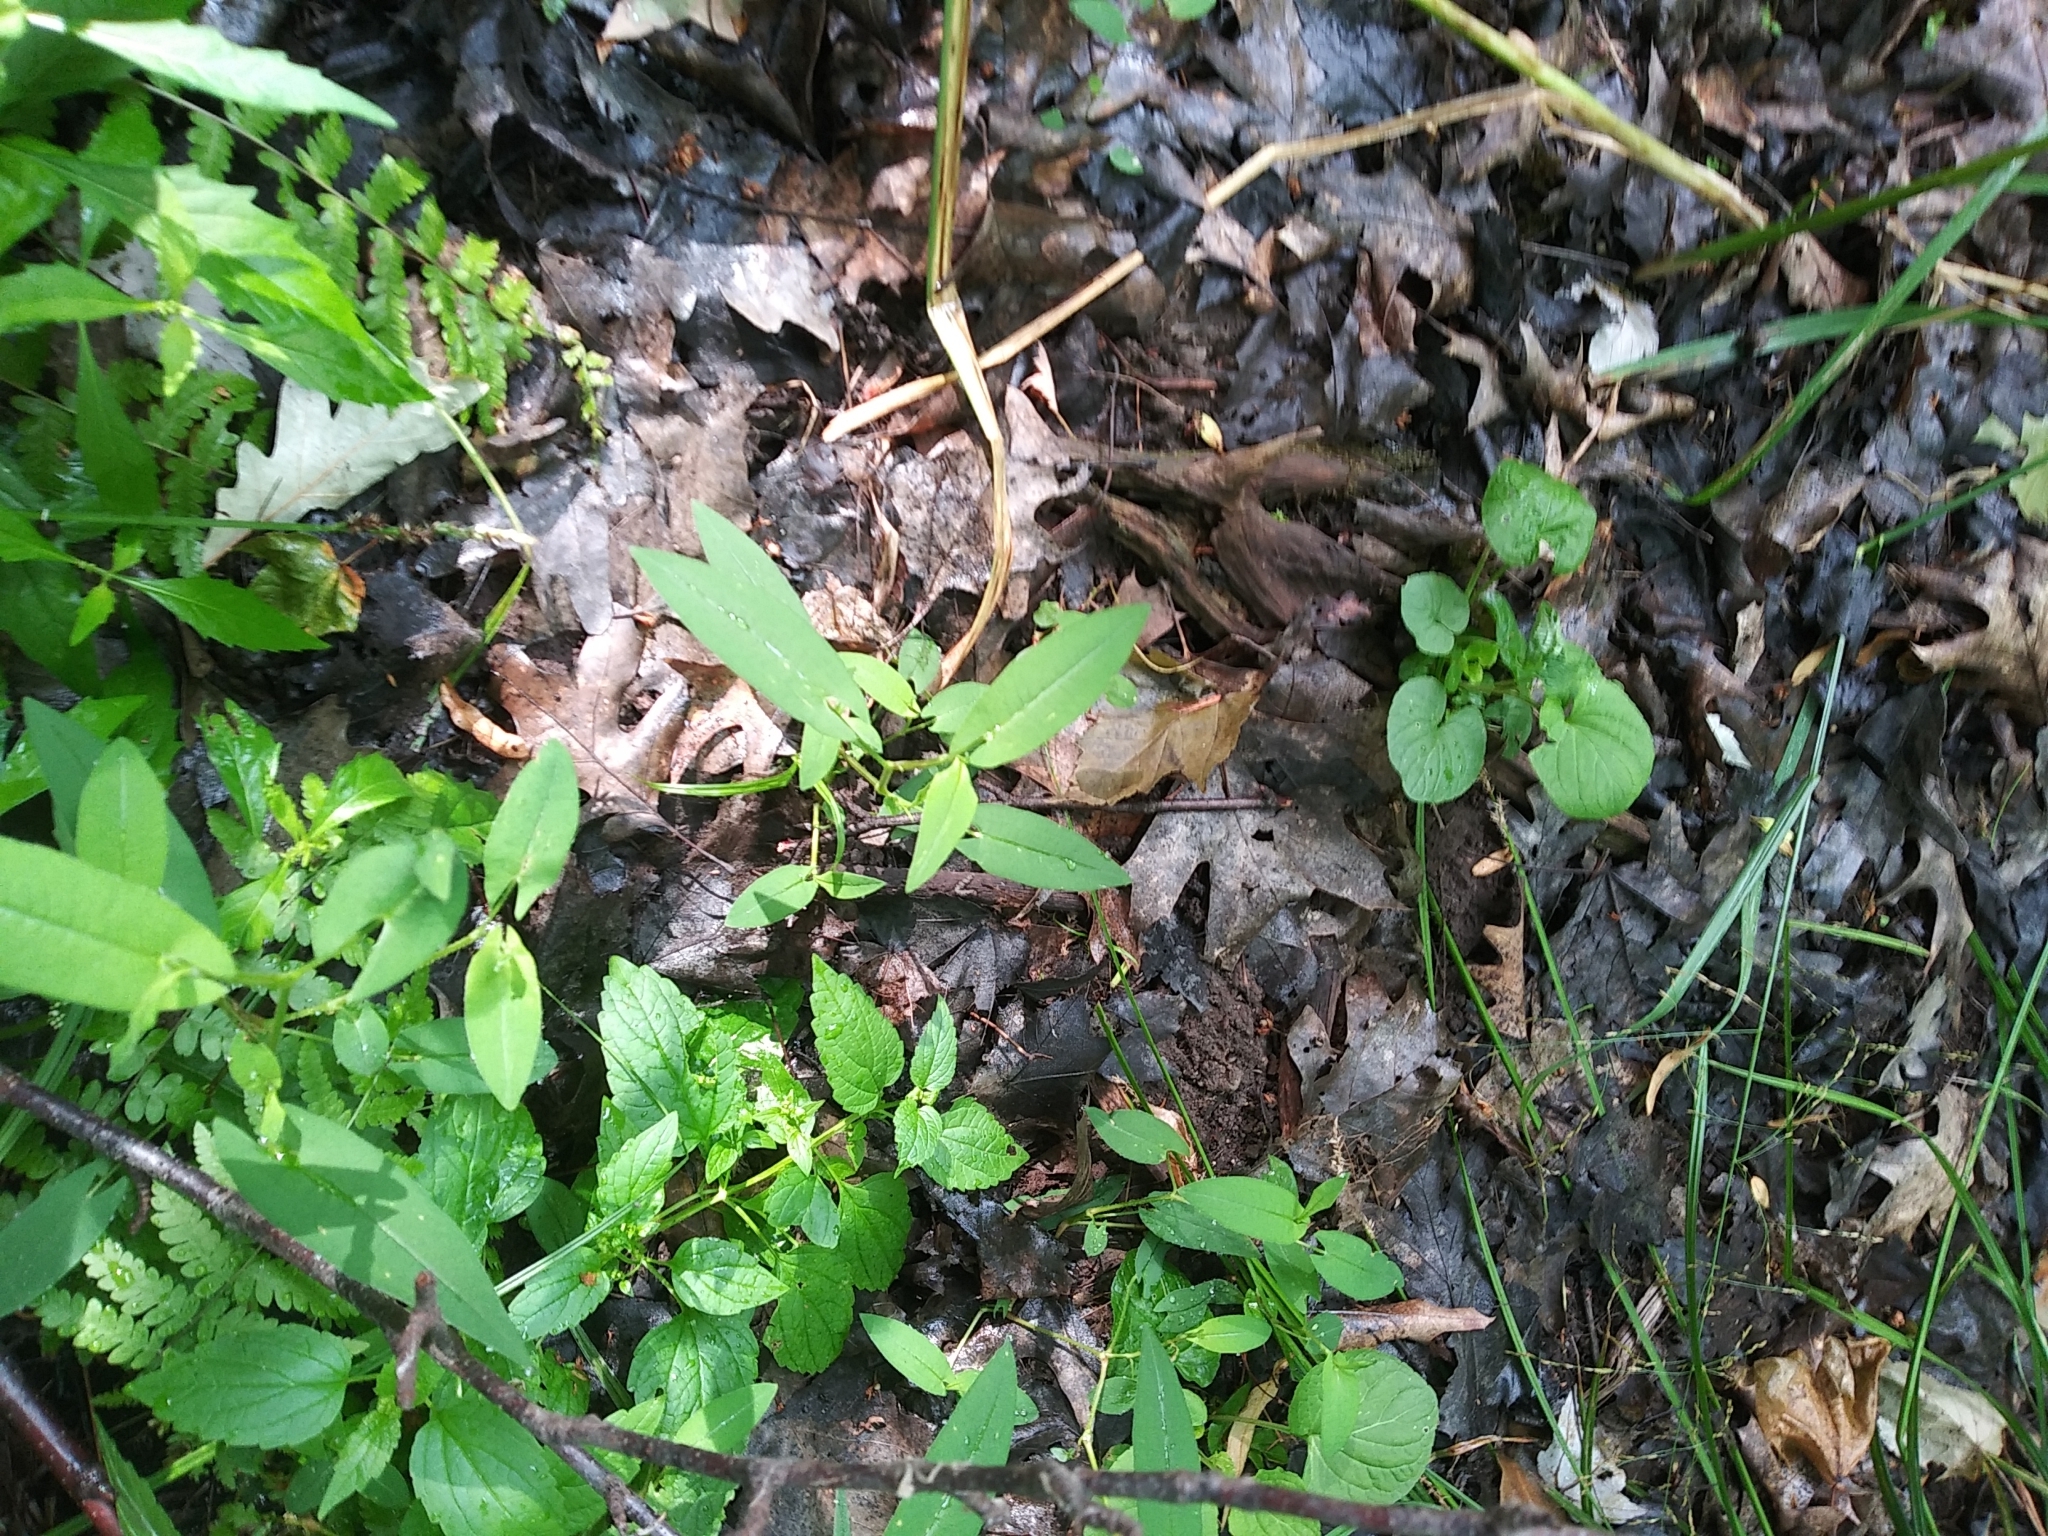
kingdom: Plantae
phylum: Tracheophyta
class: Magnoliopsida
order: Caryophyllales
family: Polygonaceae
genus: Persicaria
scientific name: Persicaria sagittata
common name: American tearthumb
